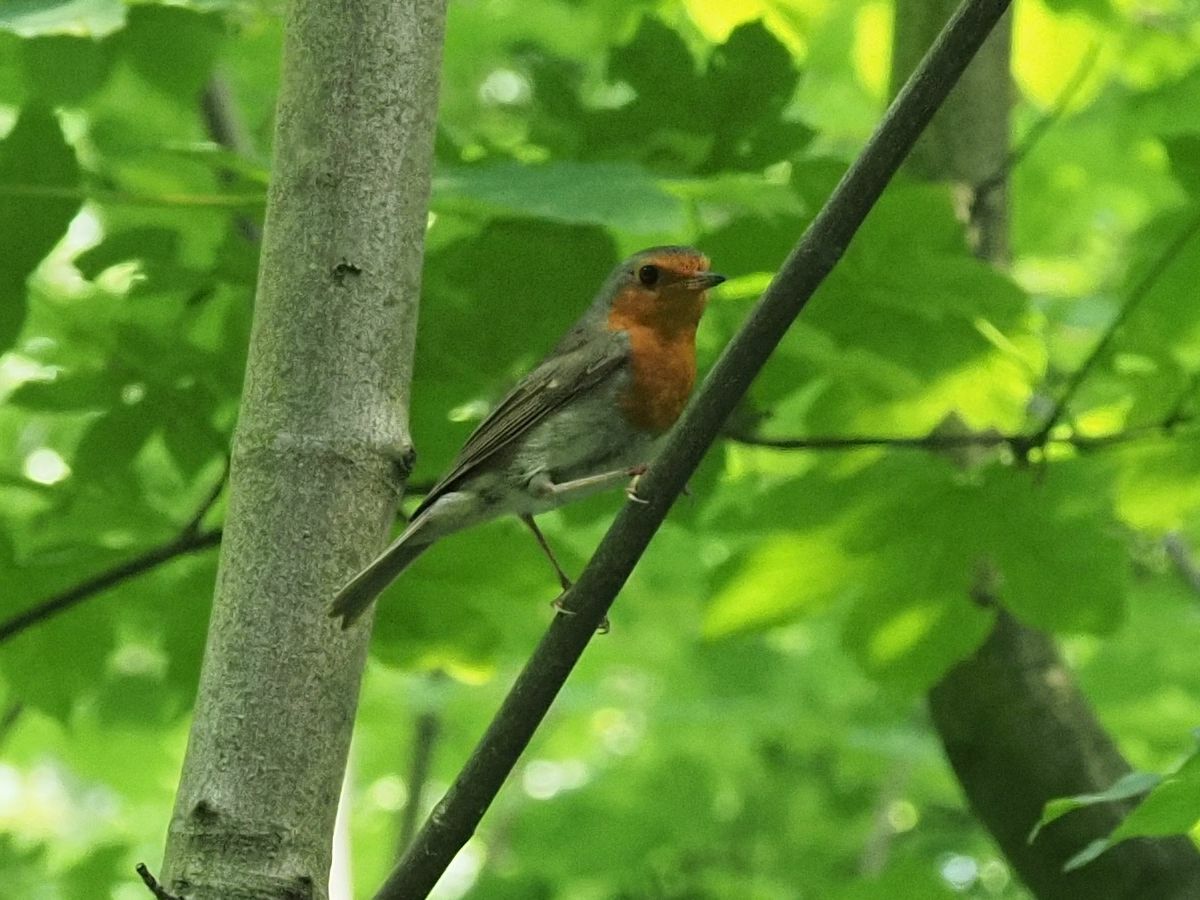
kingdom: Animalia
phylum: Chordata
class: Aves
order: Passeriformes
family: Muscicapidae
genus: Erithacus
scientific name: Erithacus rubecula
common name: European robin
